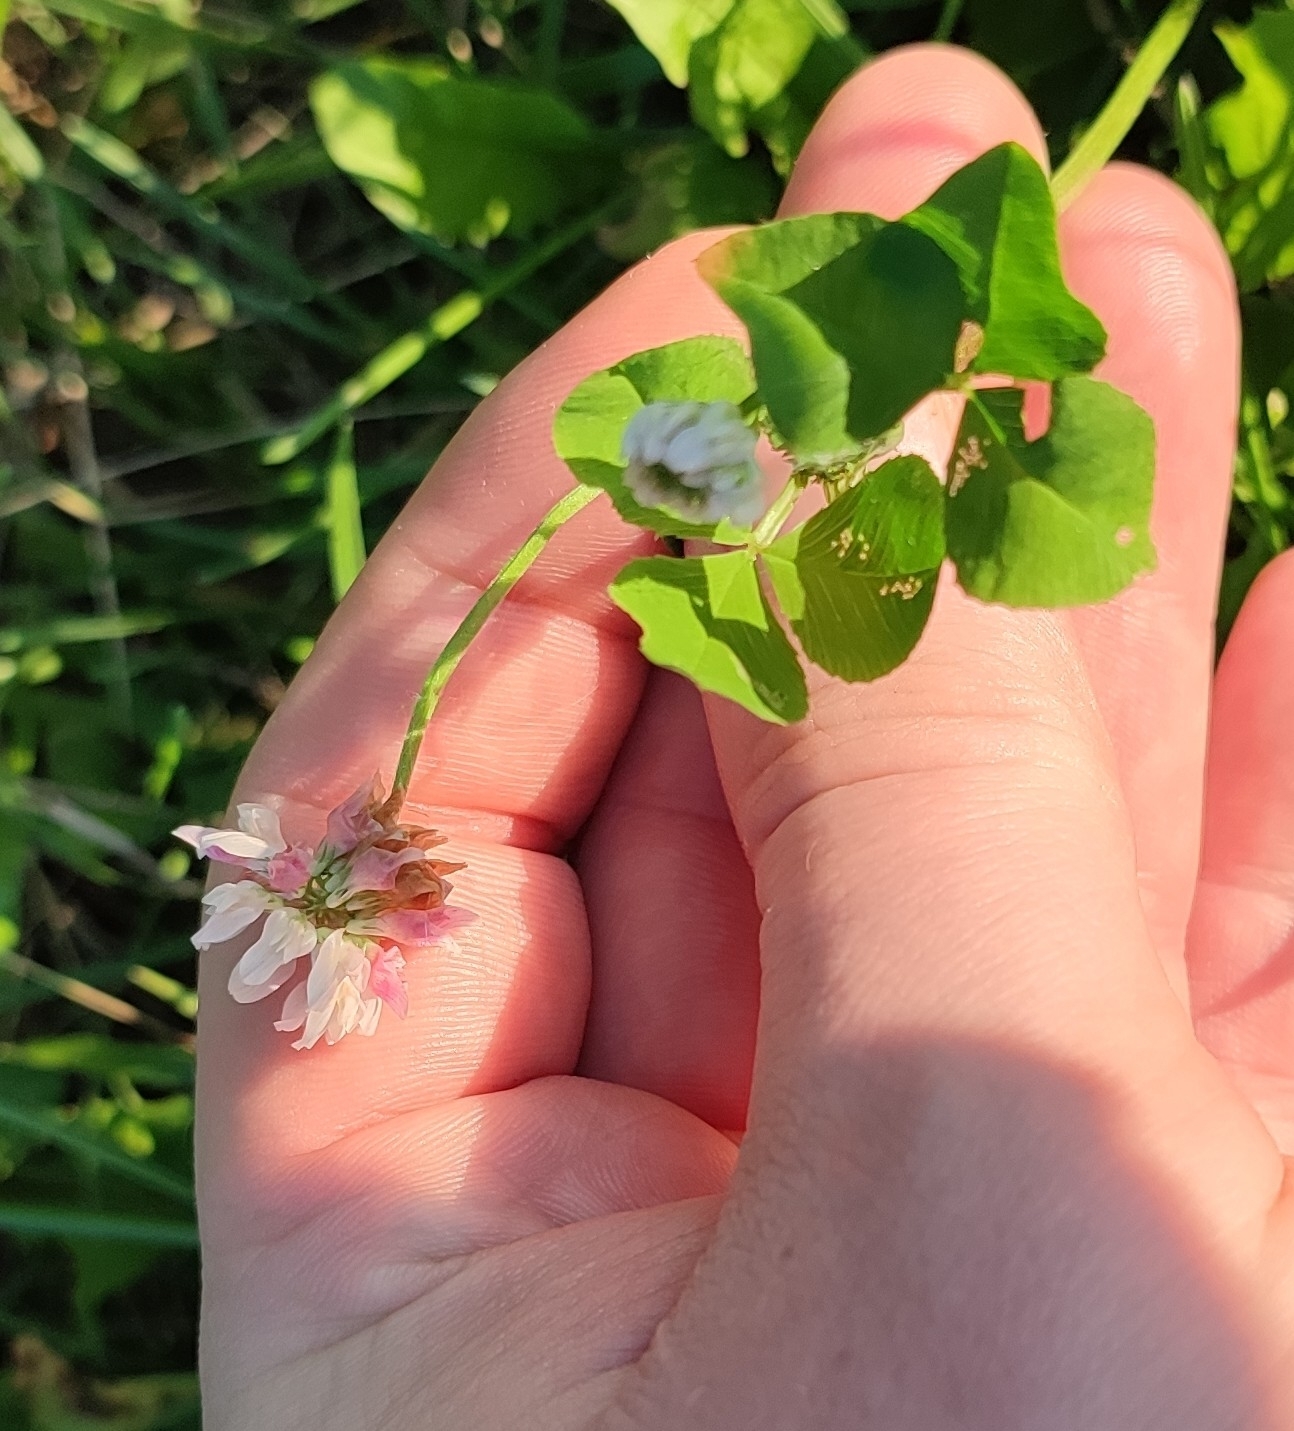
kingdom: Plantae
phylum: Tracheophyta
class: Magnoliopsida
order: Fabales
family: Fabaceae
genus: Trifolium
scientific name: Trifolium hybridum
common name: Alsike clover
